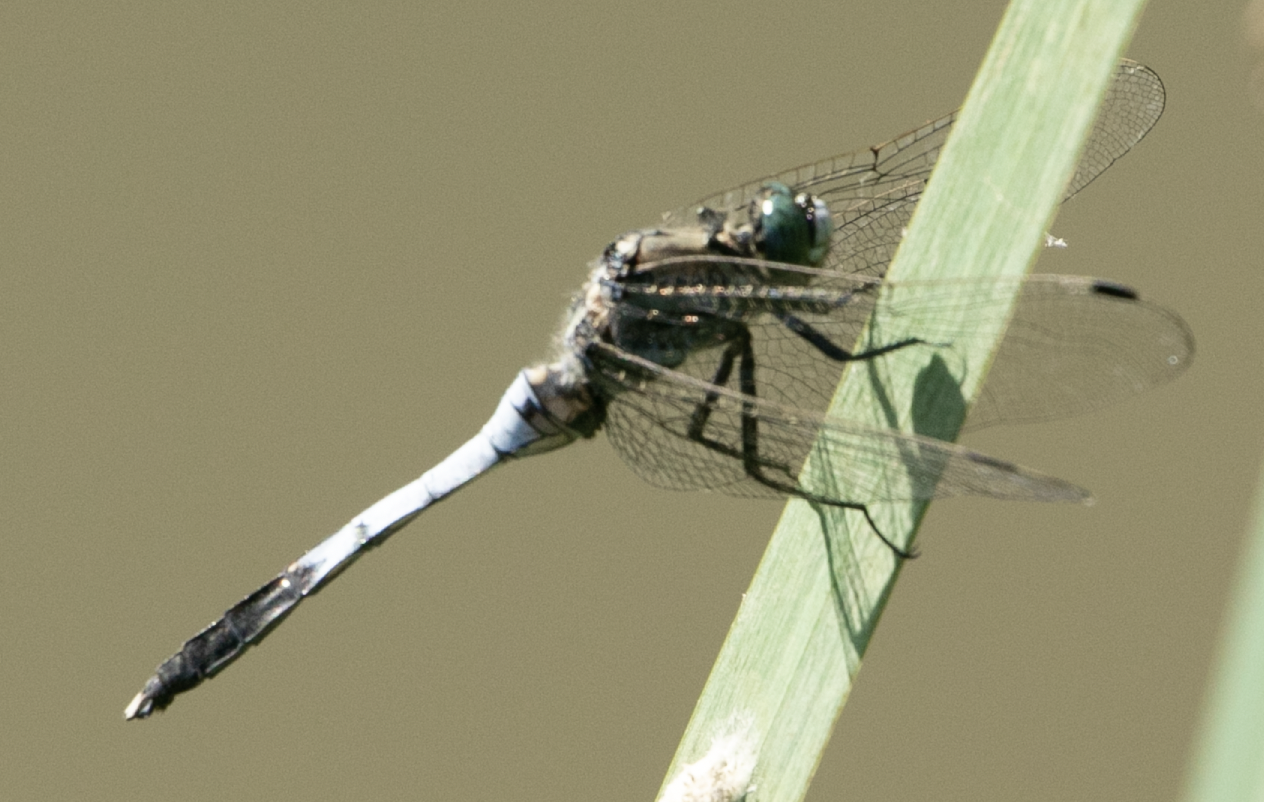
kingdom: Animalia
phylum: Arthropoda
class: Insecta
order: Odonata
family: Libellulidae
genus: Orthetrum
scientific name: Orthetrum albistylum
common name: White-tailed skimmer
